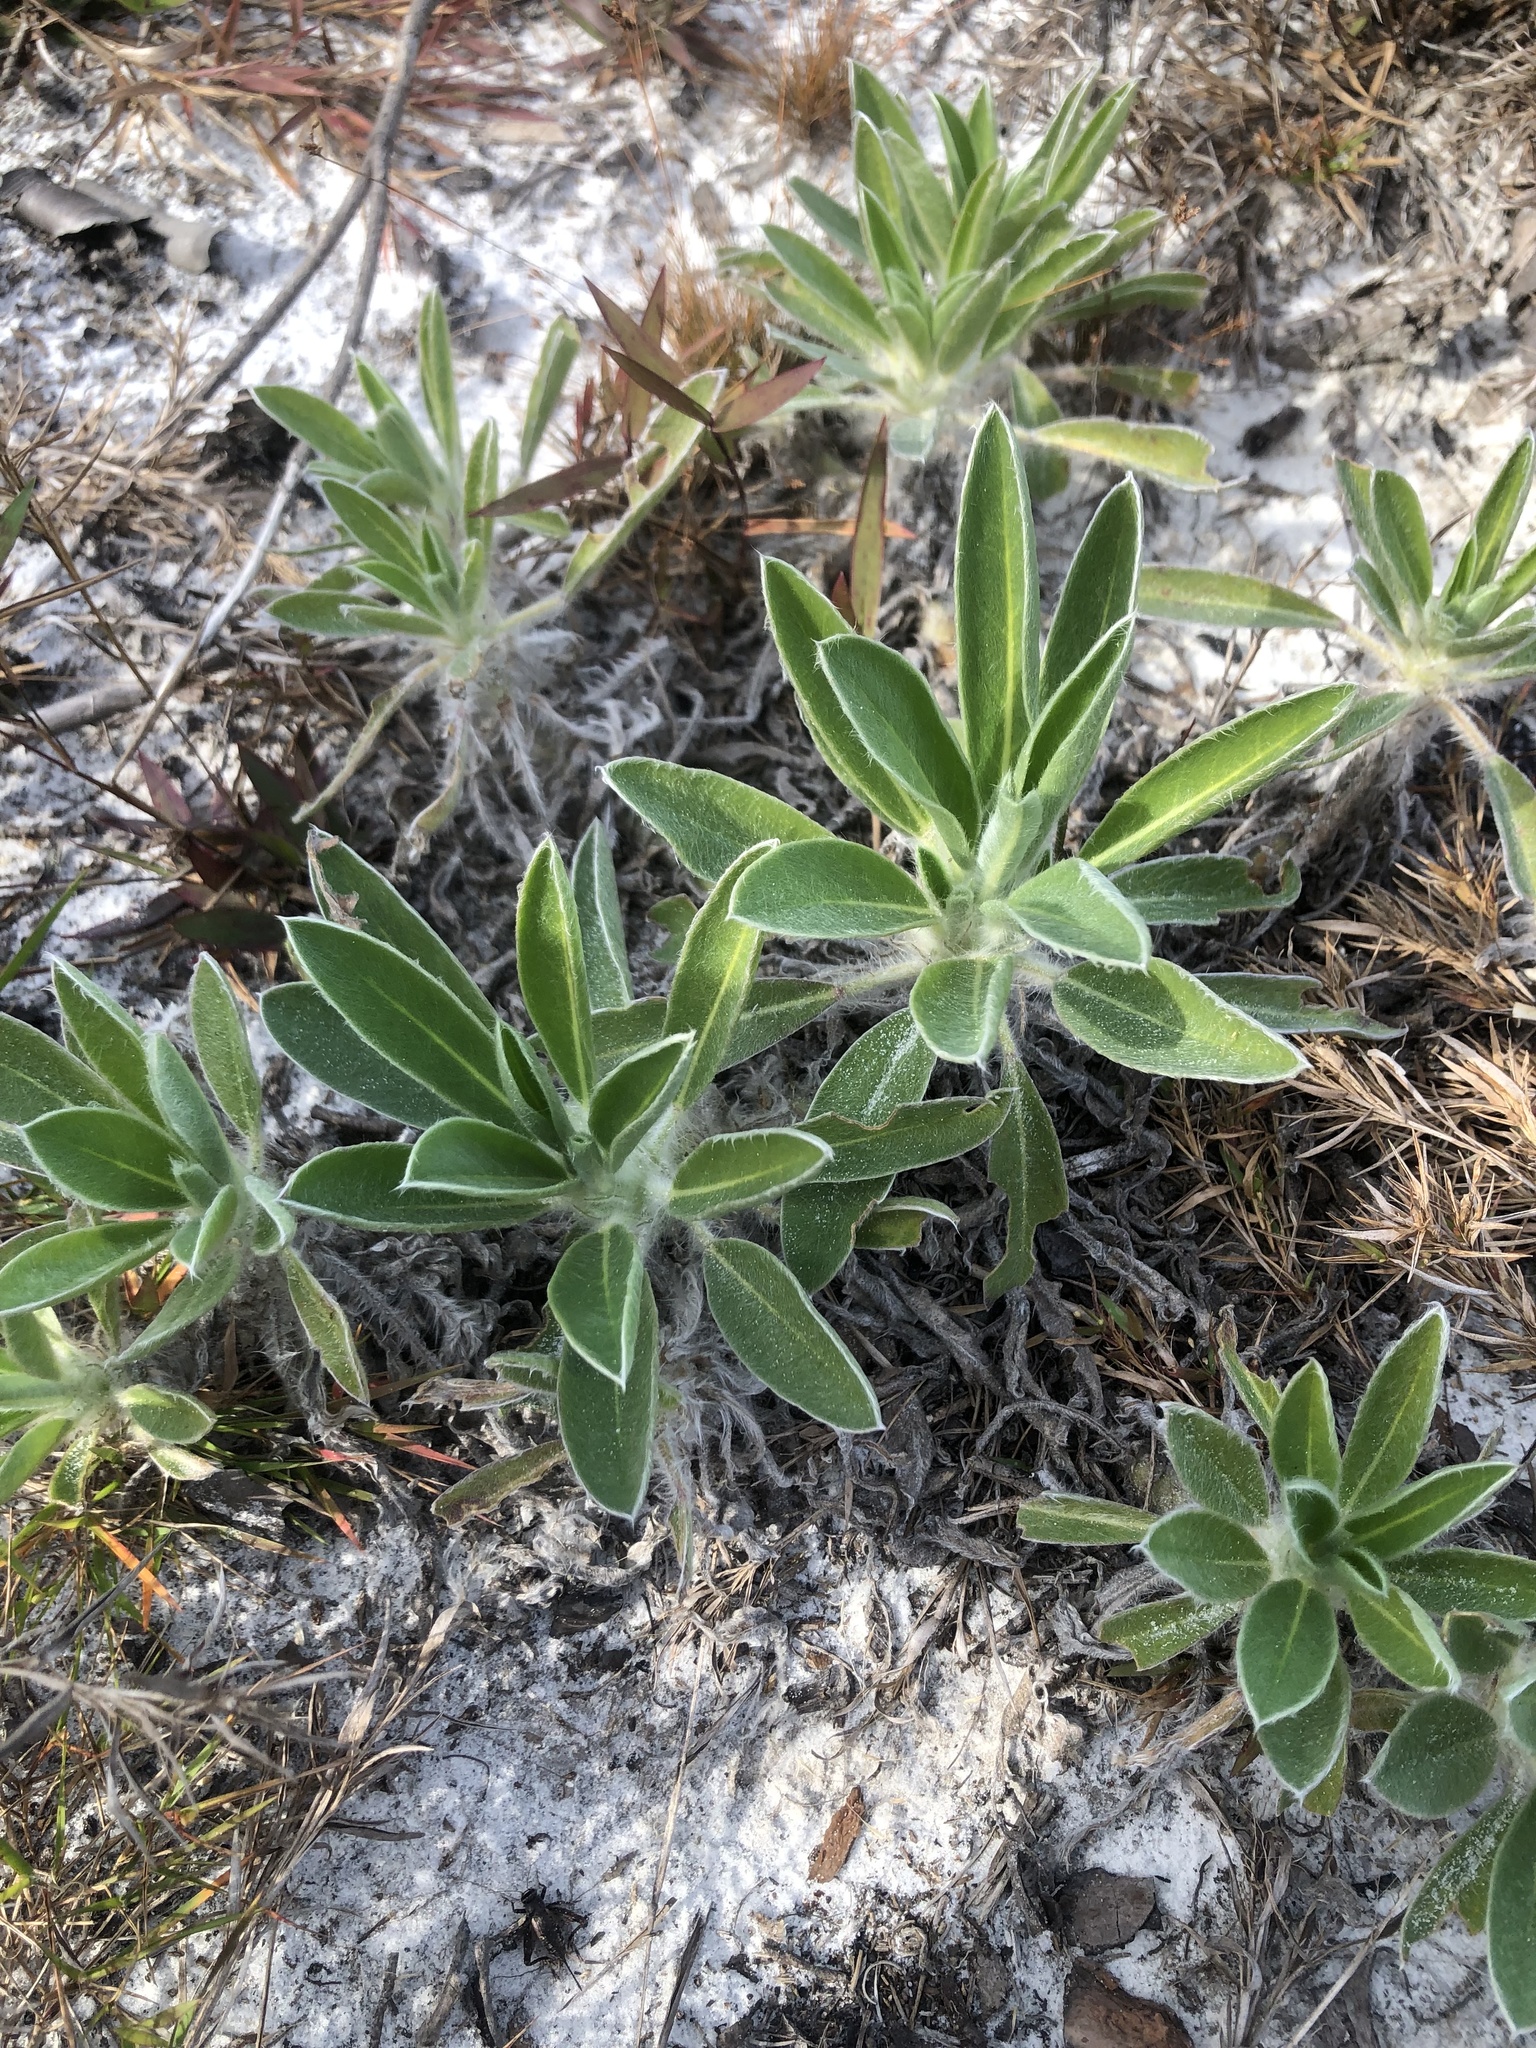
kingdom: Plantae
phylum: Tracheophyta
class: Magnoliopsida
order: Fabales
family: Fabaceae
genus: Lupinus
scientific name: Lupinus villosus
